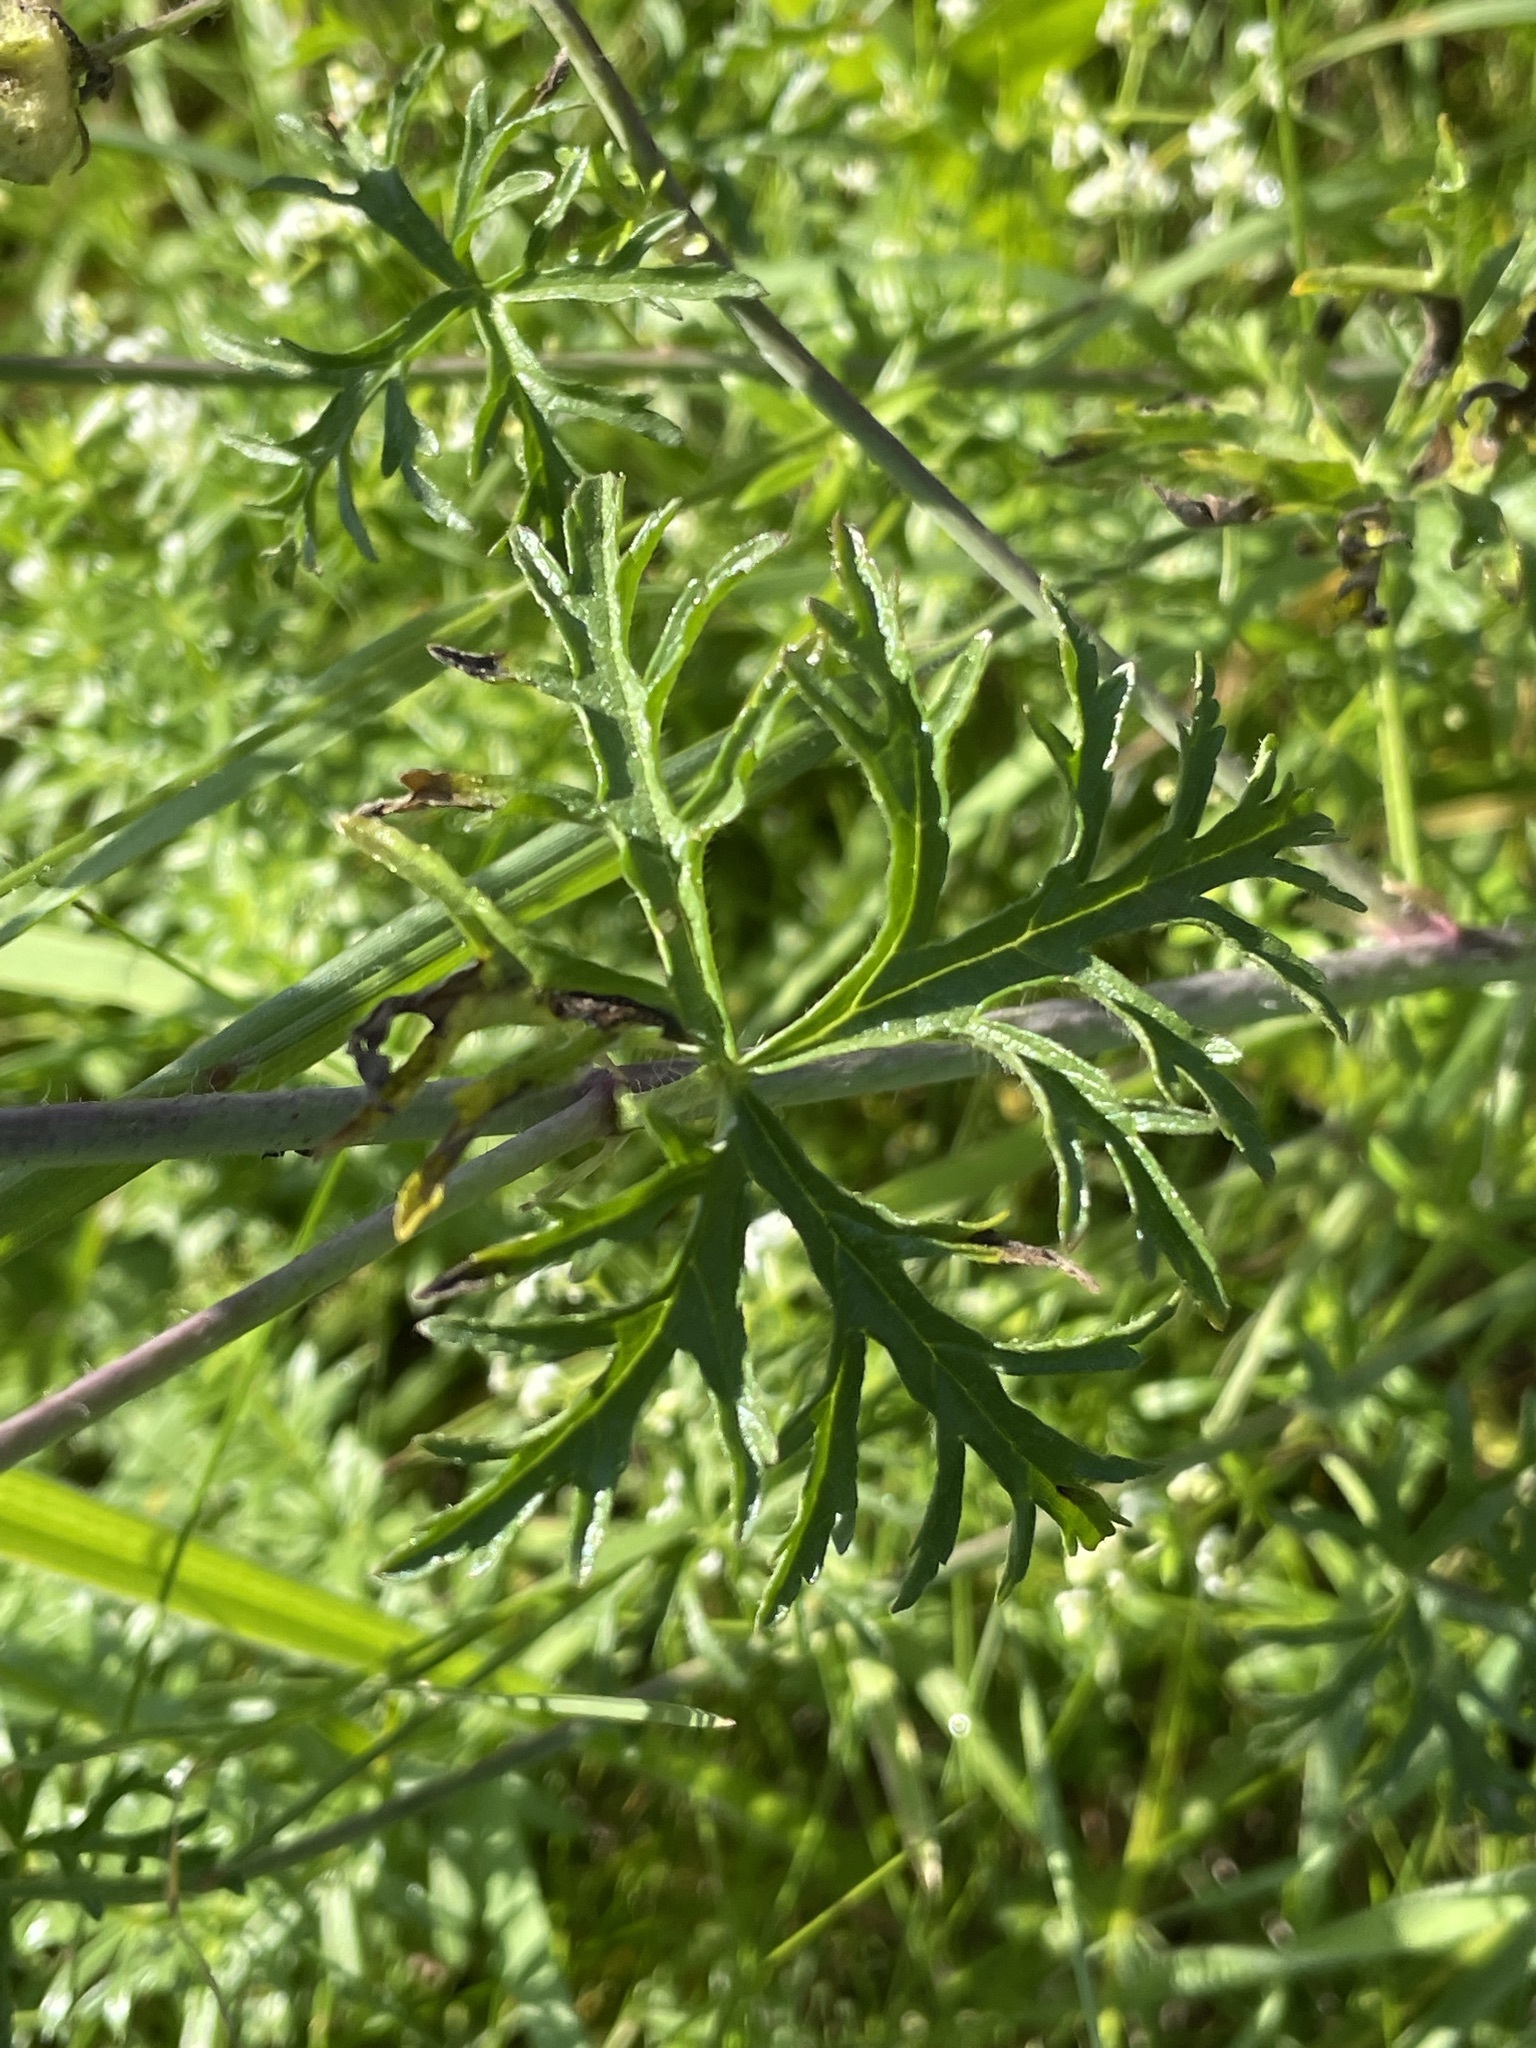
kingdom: Plantae
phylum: Tracheophyta
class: Magnoliopsida
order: Malvales
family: Malvaceae
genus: Malva
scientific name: Malva moschata
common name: Musk mallow
